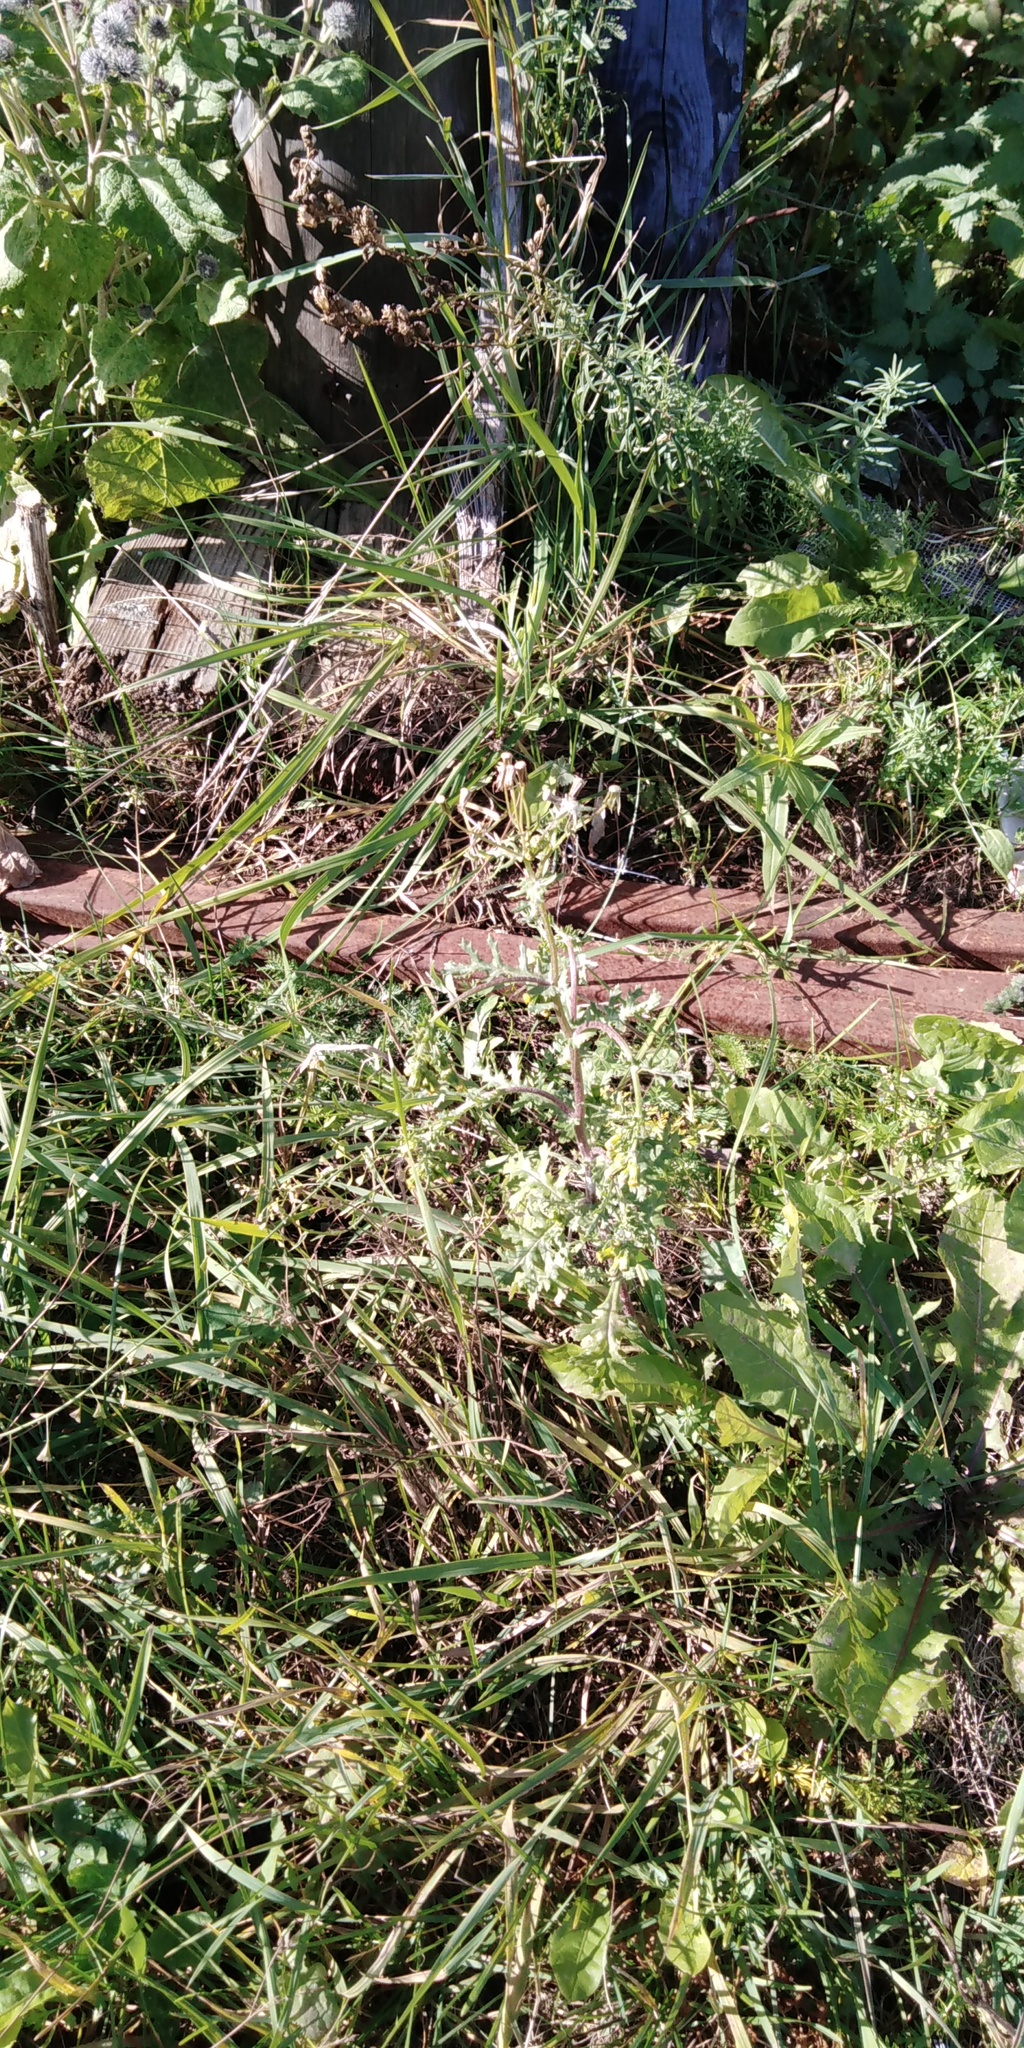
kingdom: Plantae
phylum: Tracheophyta
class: Magnoliopsida
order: Asterales
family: Asteraceae
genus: Senecio
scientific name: Senecio vulgaris
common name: Old-man-in-the-spring
